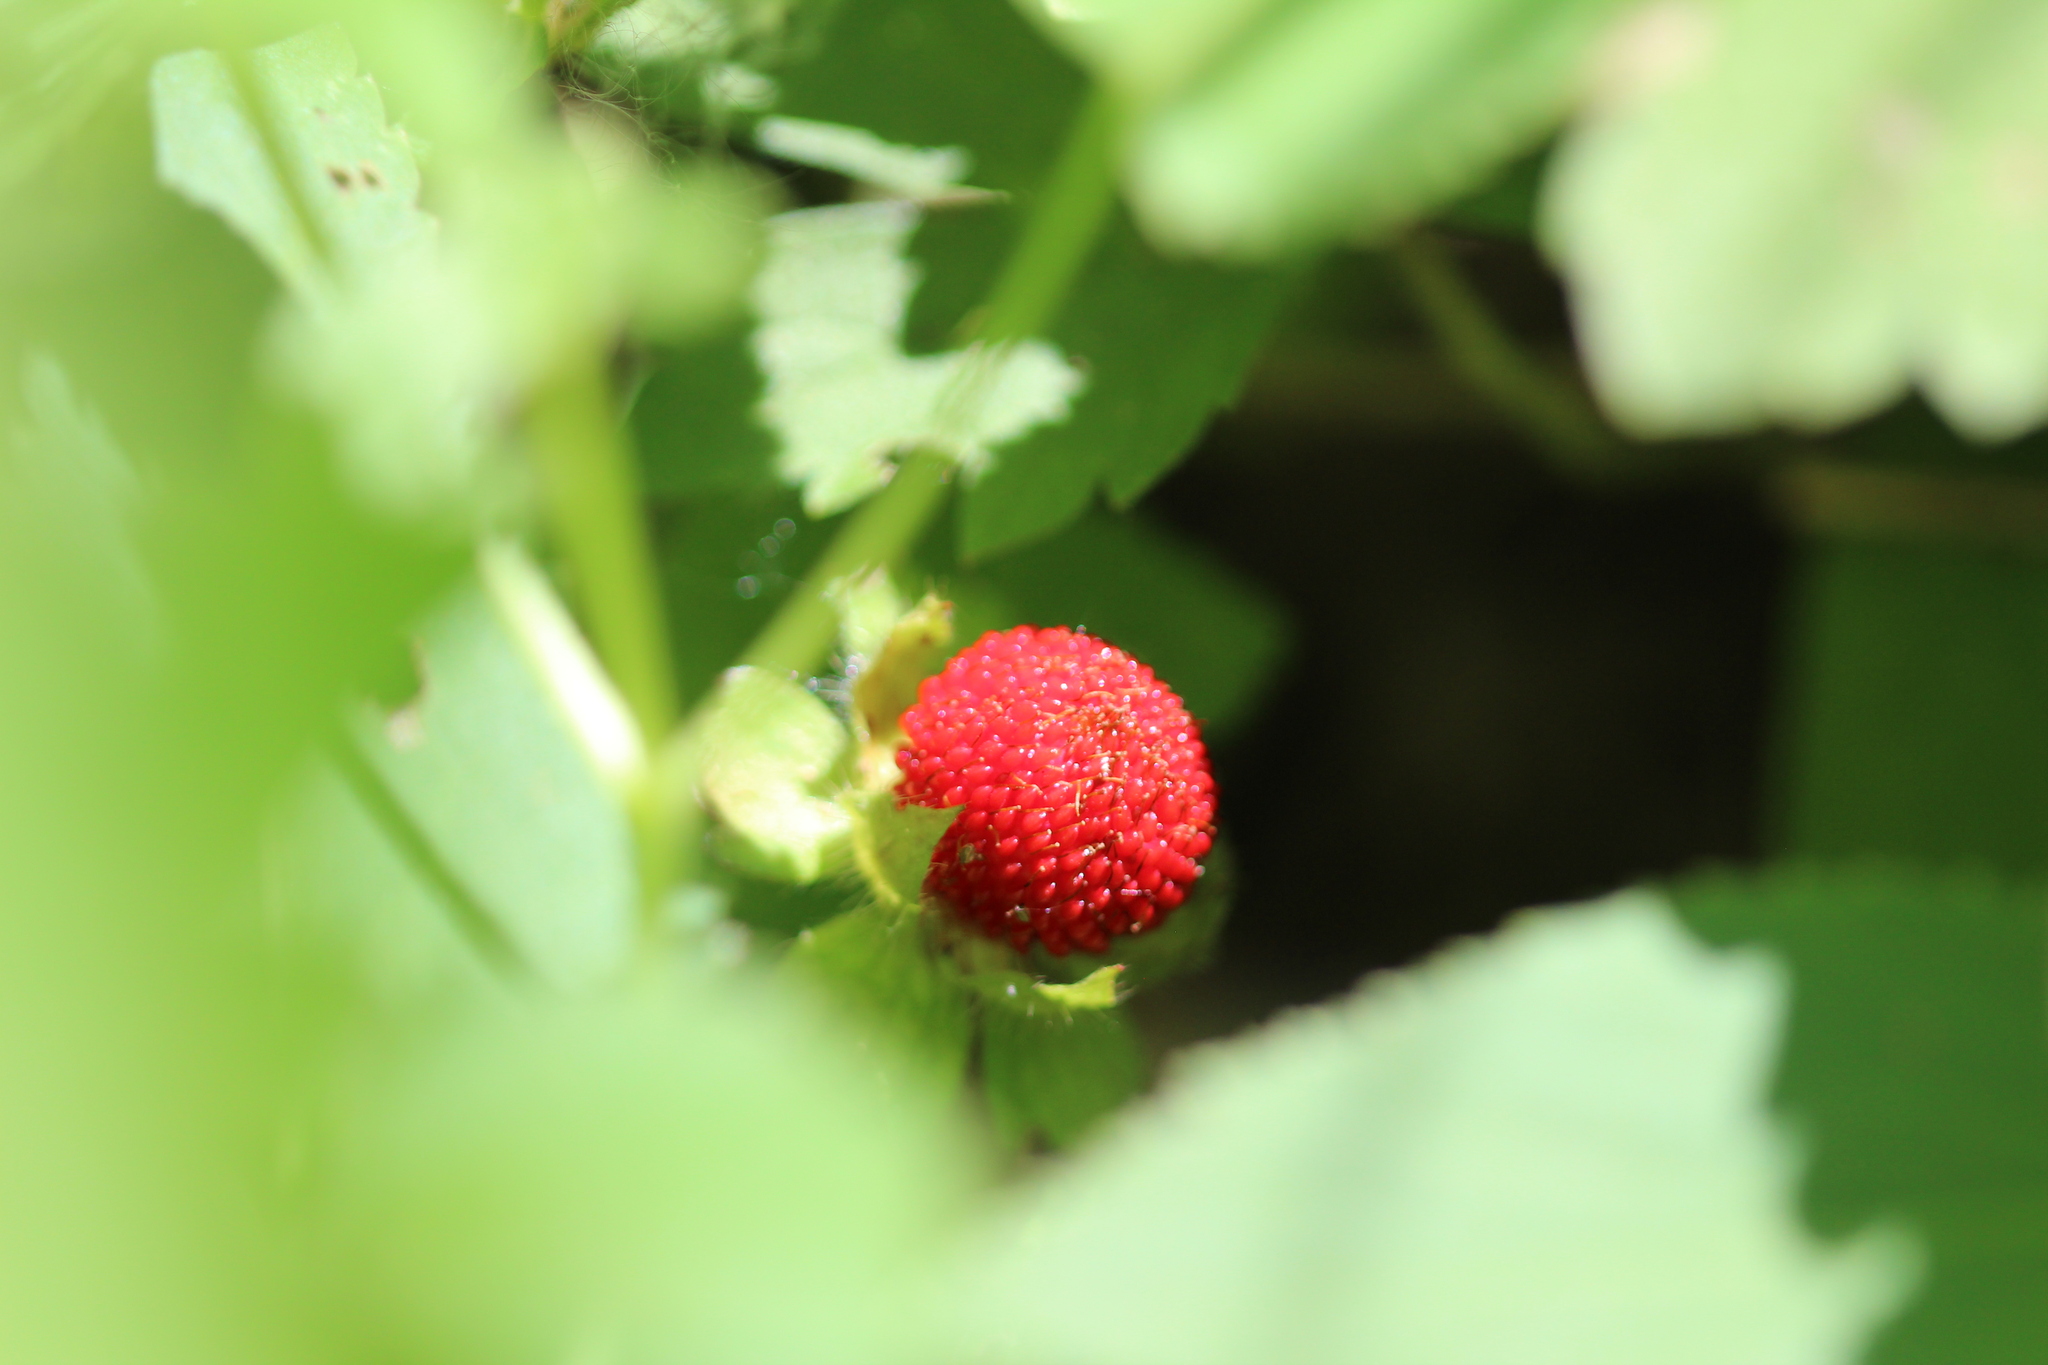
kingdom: Plantae
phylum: Tracheophyta
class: Magnoliopsida
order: Rosales
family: Rosaceae
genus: Potentilla
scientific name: Potentilla indica
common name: Yellow-flowered strawberry
